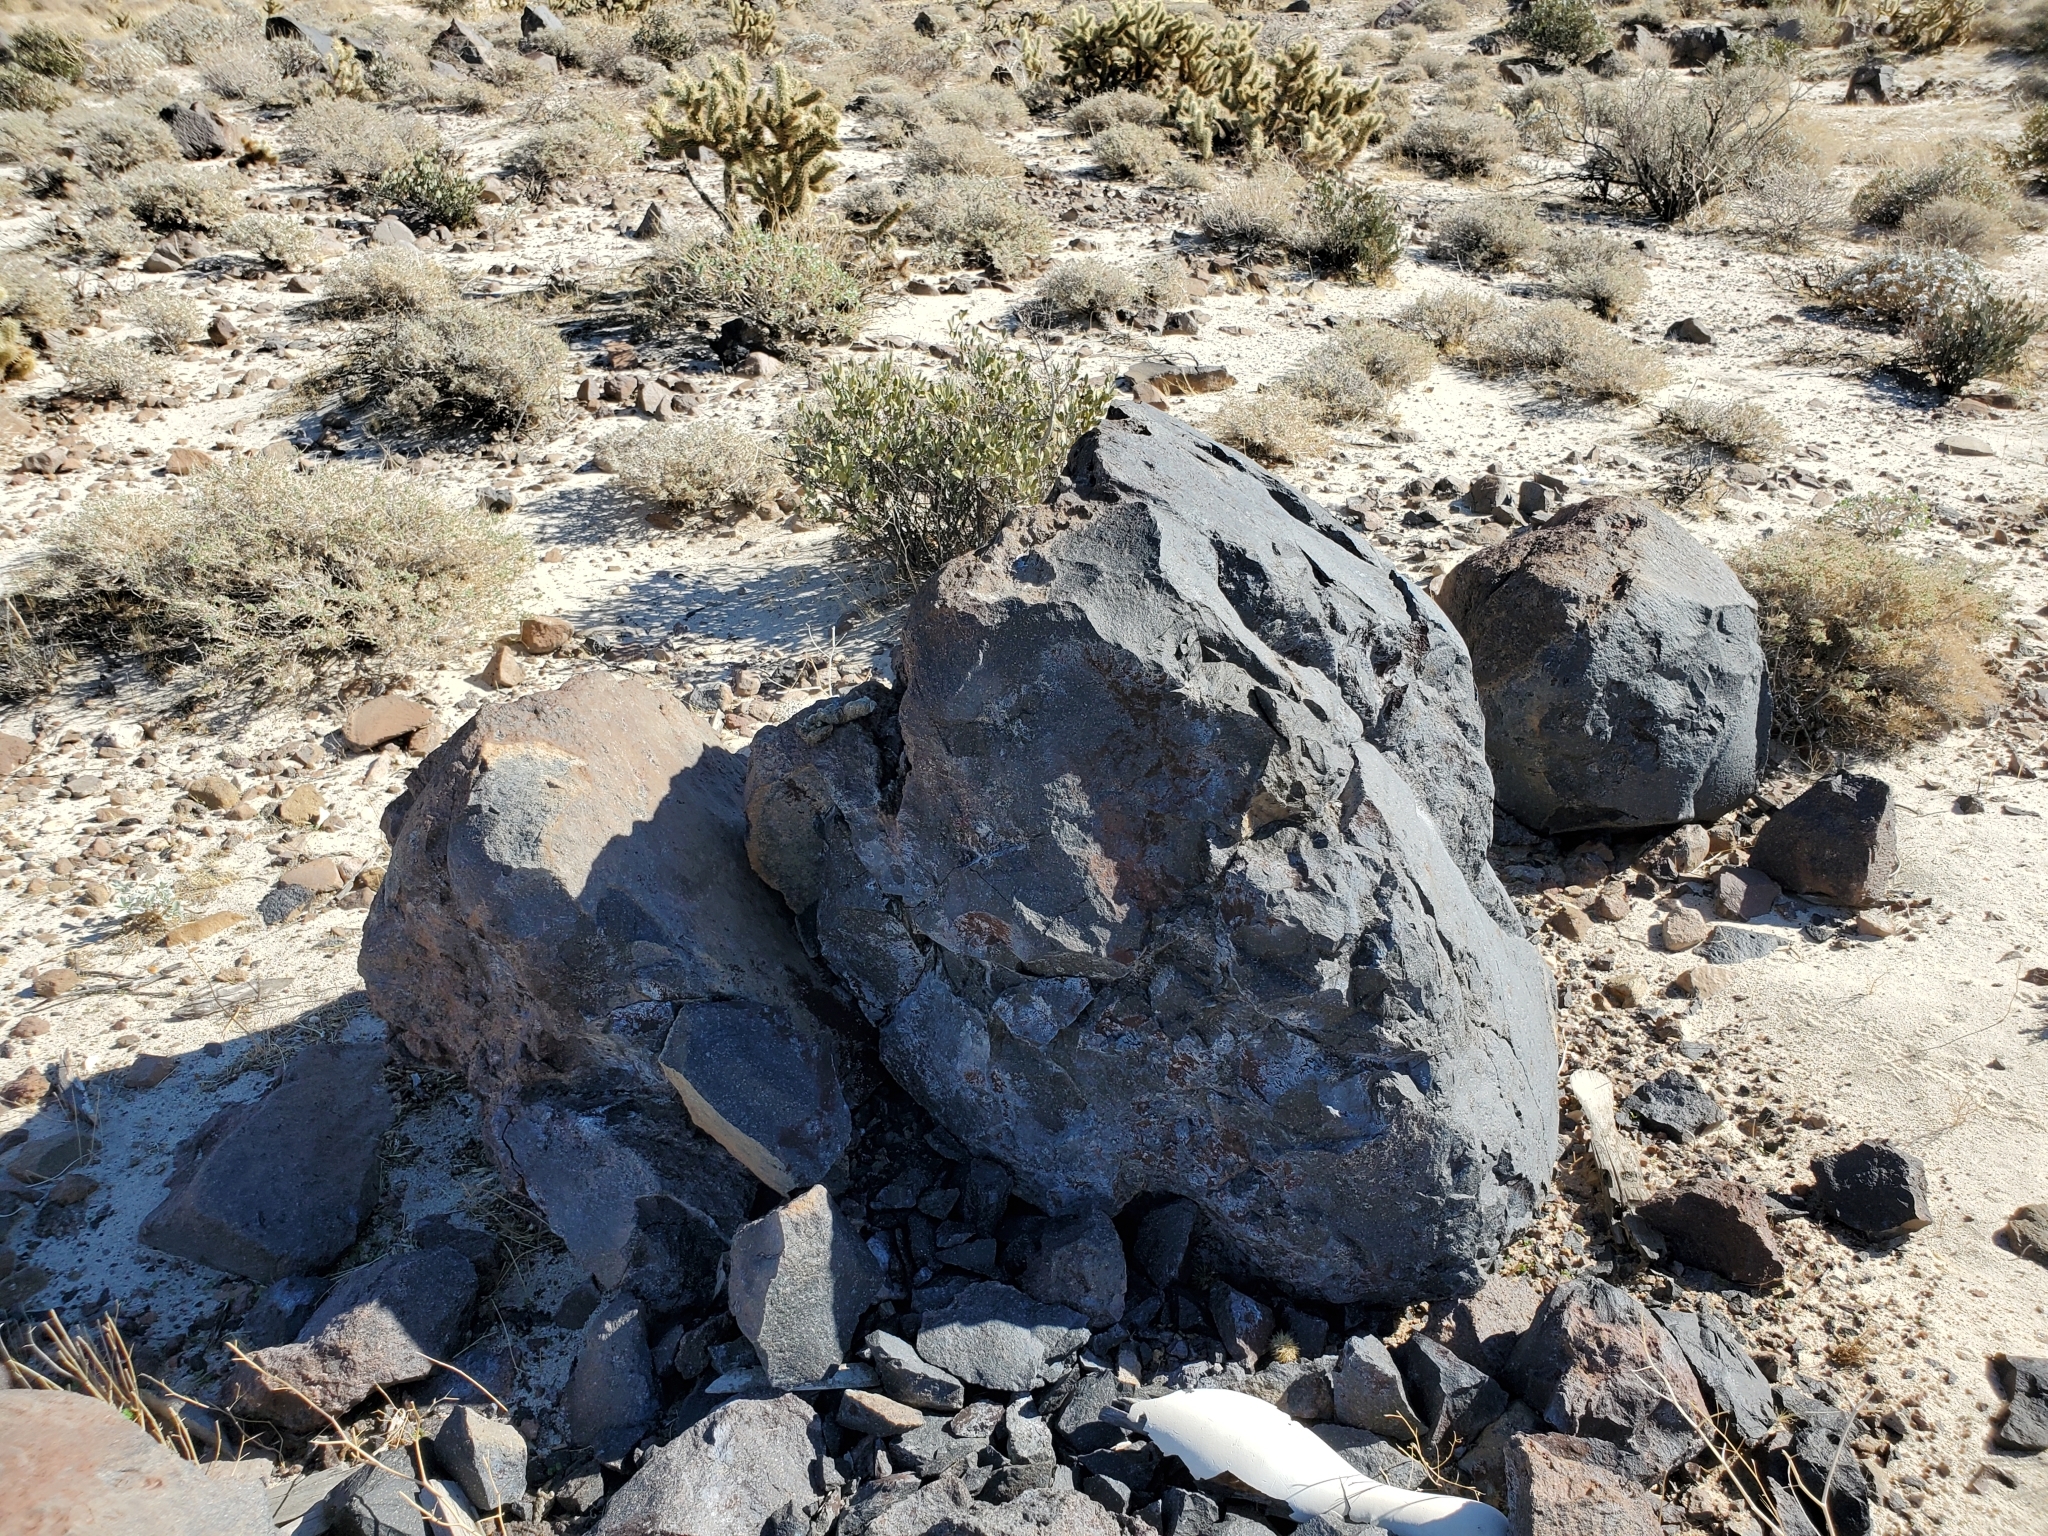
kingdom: Animalia
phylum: Chordata
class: Mammalia
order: Carnivora
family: Procyonidae
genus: Bassariscus
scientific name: Bassariscus astutus
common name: Ringtail
